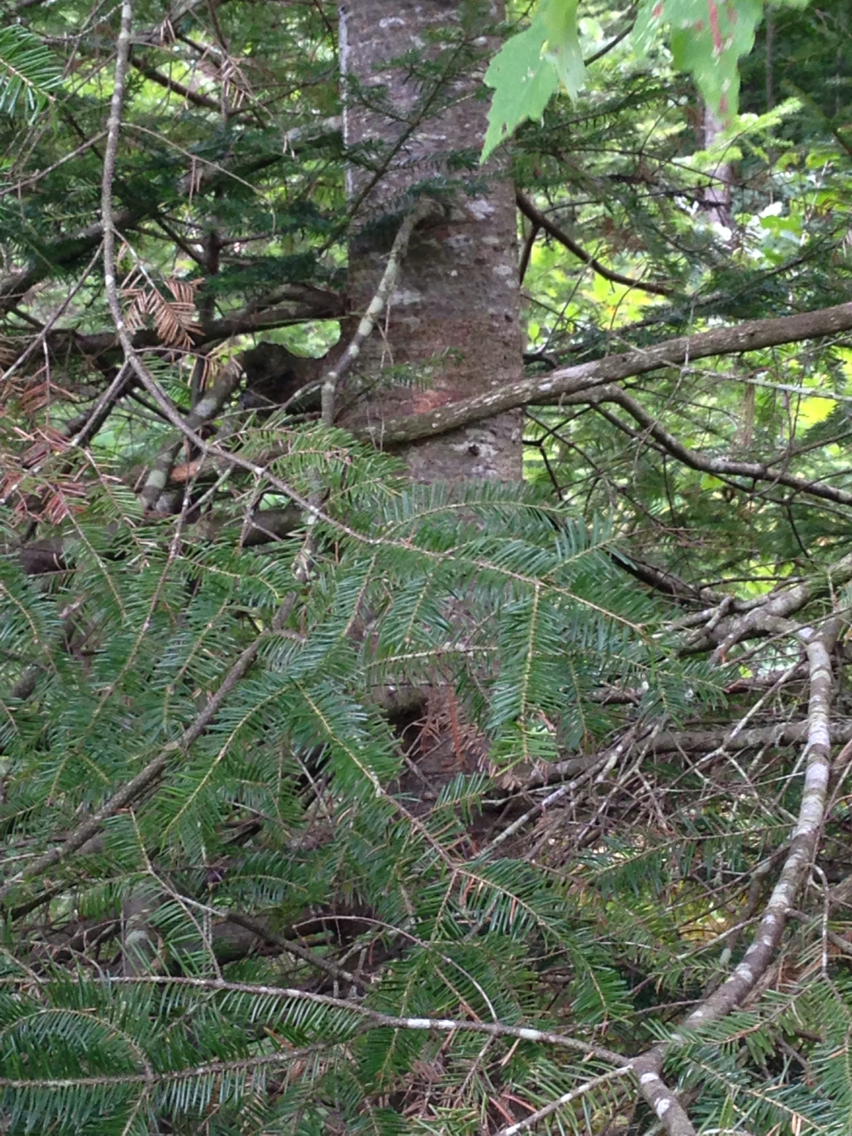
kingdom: Plantae
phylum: Tracheophyta
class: Pinopsida
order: Pinales
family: Pinaceae
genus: Abies
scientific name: Abies balsamea
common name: Balsam fir
